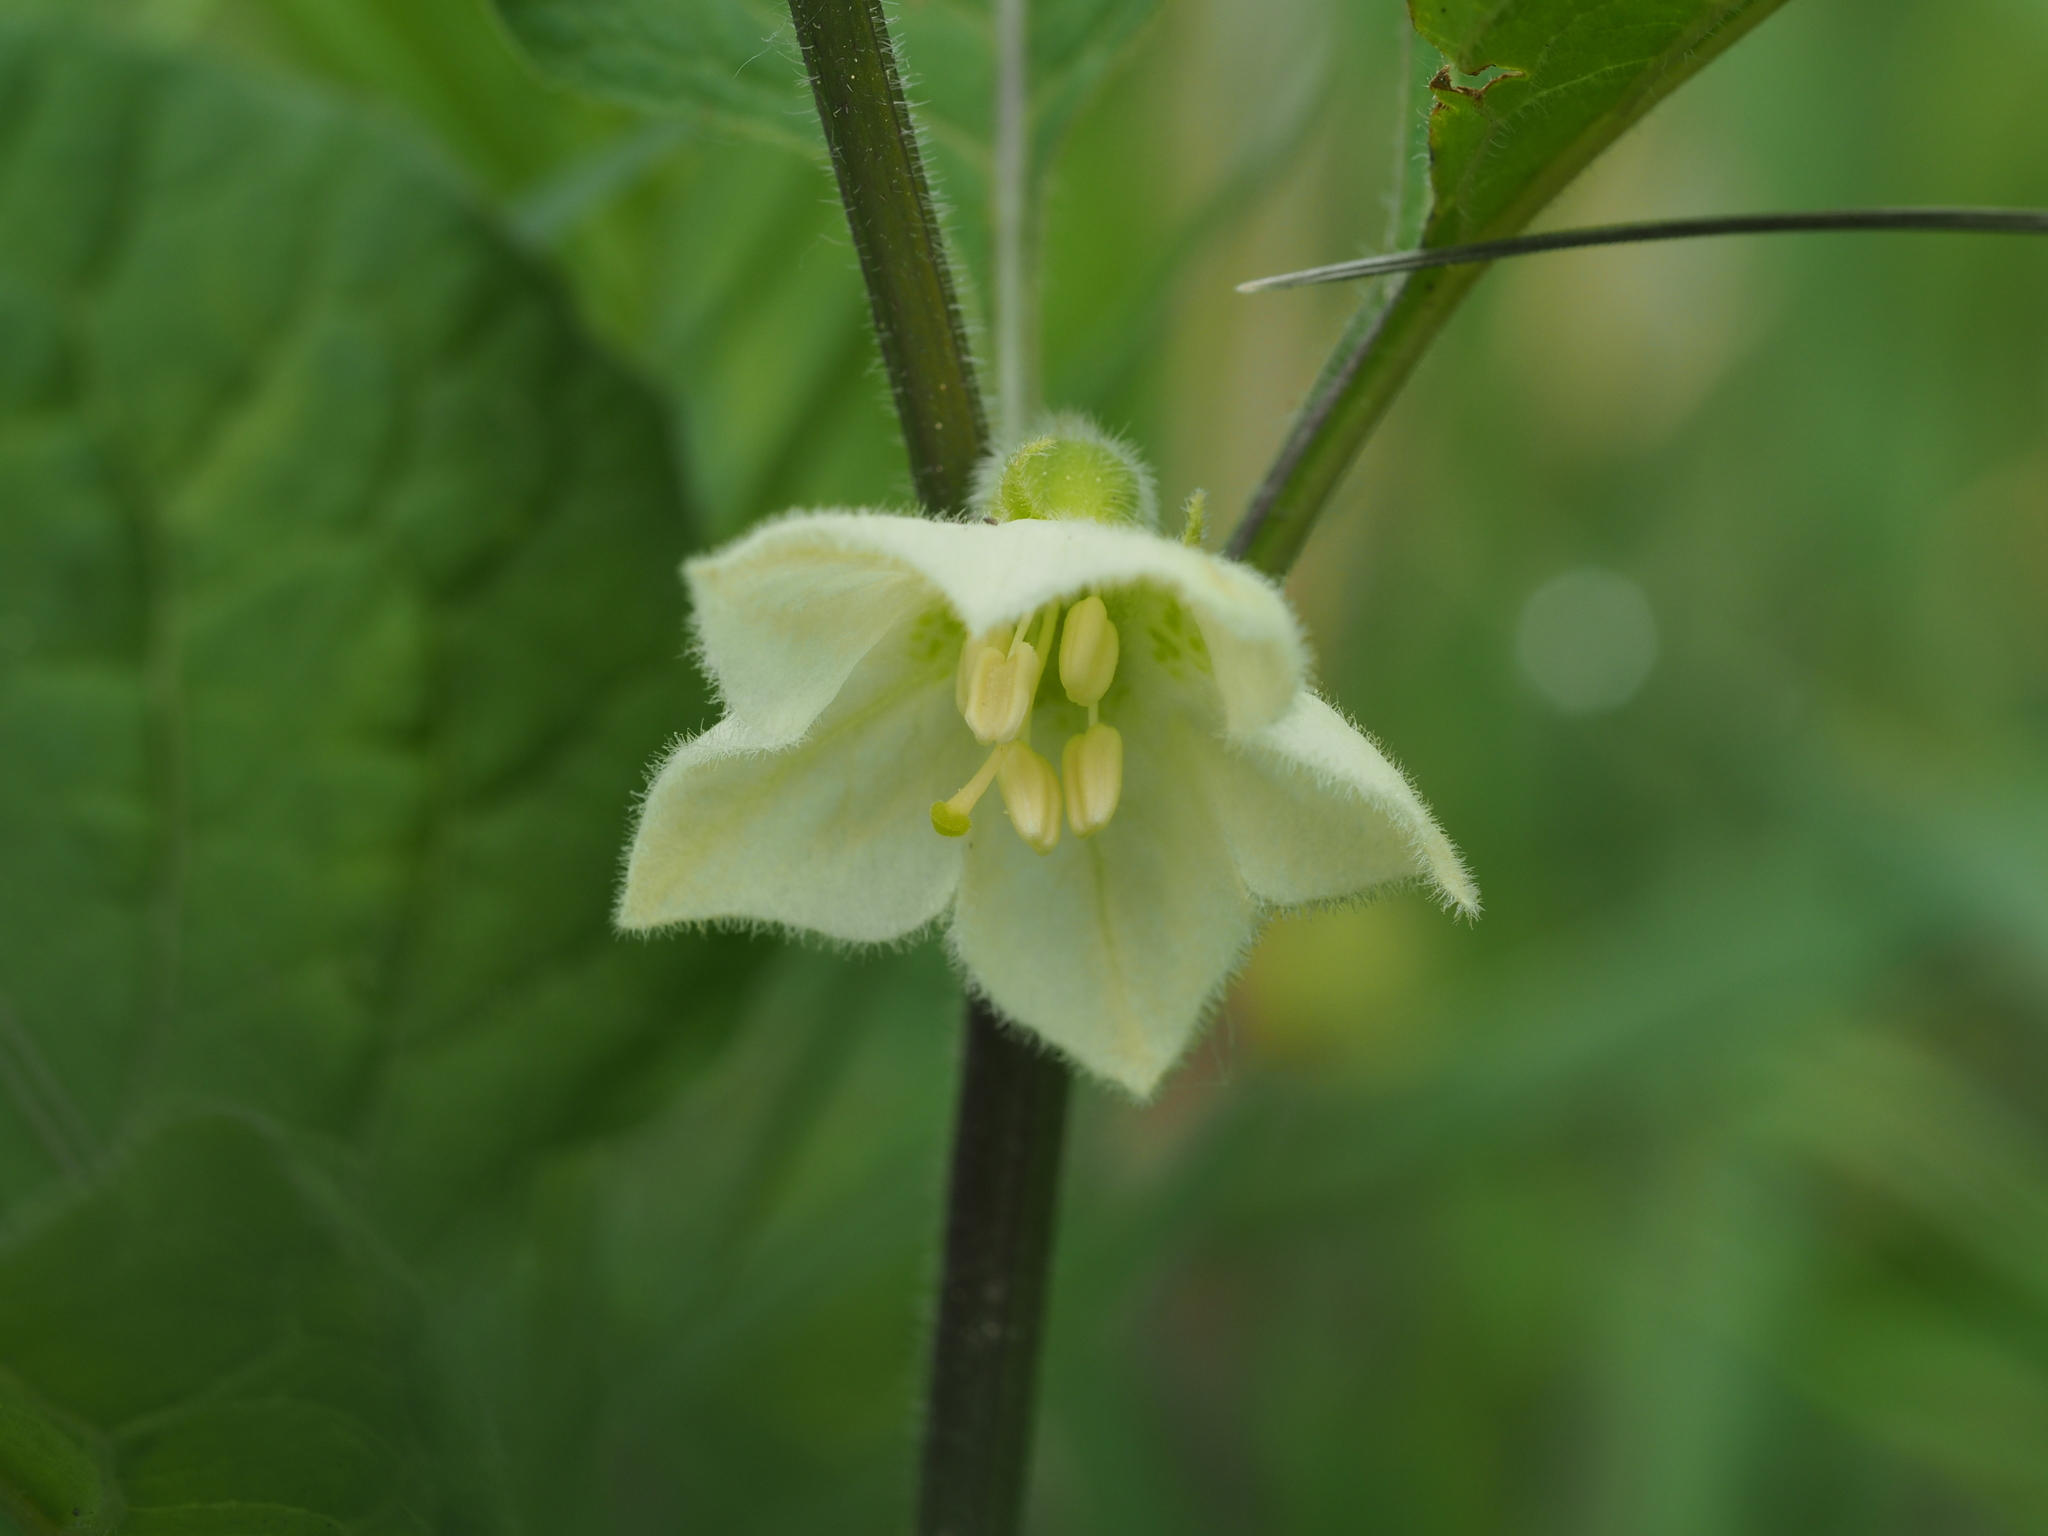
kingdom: Plantae
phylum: Tracheophyta
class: Magnoliopsida
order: Solanales
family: Solanaceae
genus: Alkekengi
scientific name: Alkekengi officinarum
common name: Japanese-lantern
